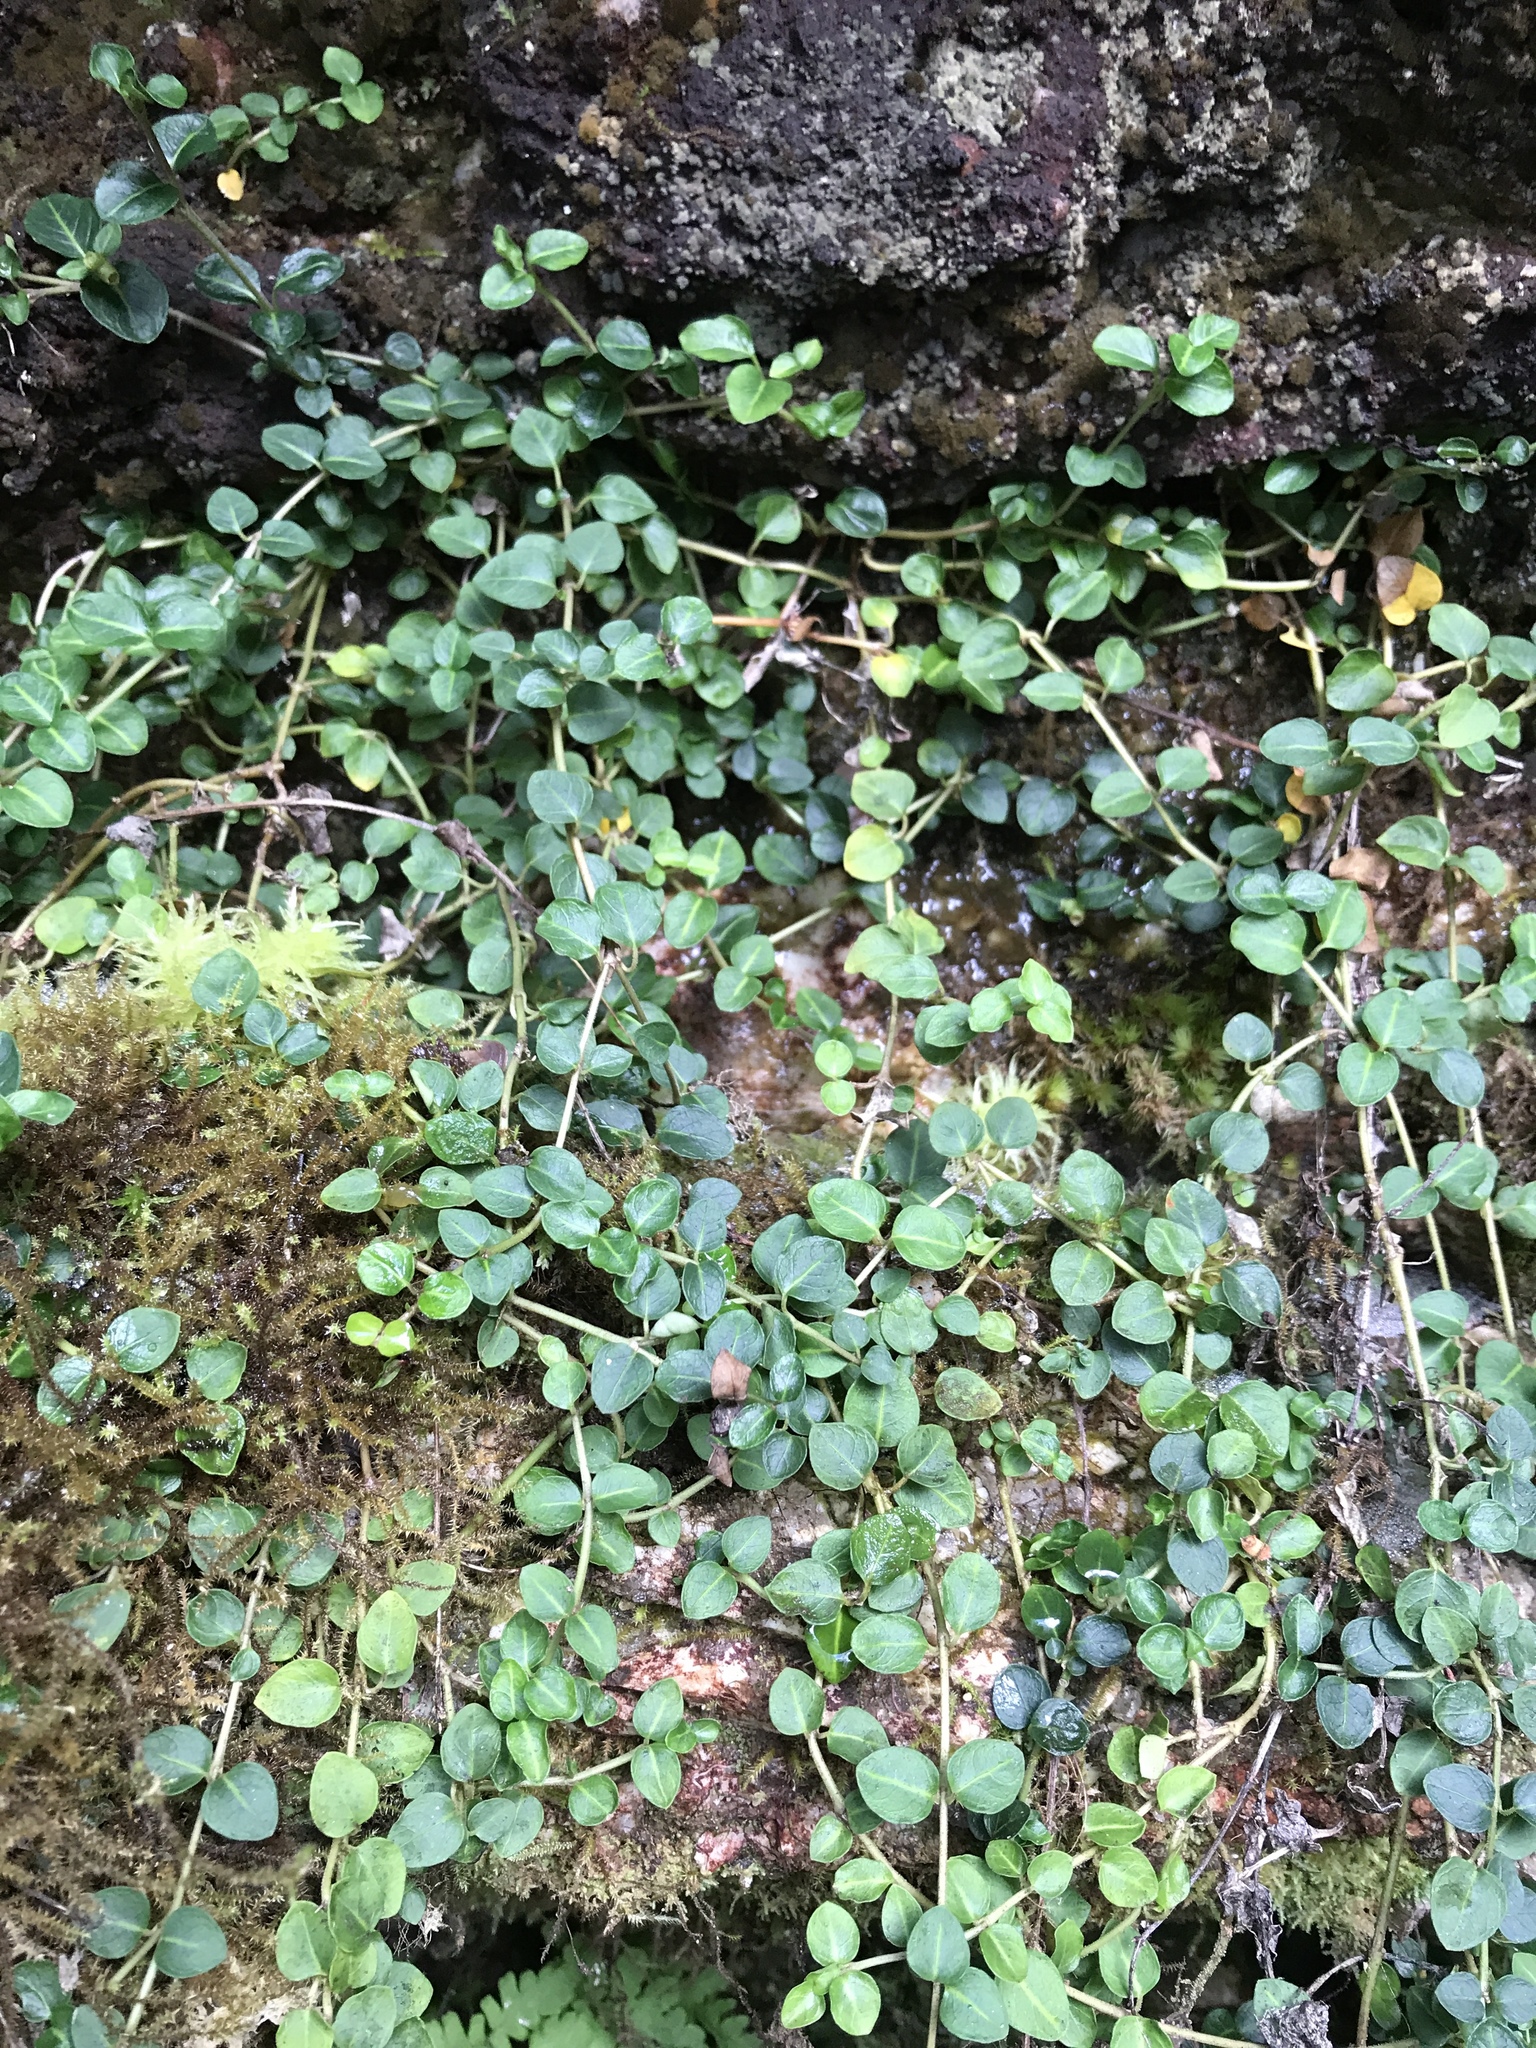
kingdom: Plantae
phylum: Tracheophyta
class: Magnoliopsida
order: Gentianales
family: Rubiaceae
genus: Mitchella
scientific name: Mitchella repens
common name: Partridge-berry
